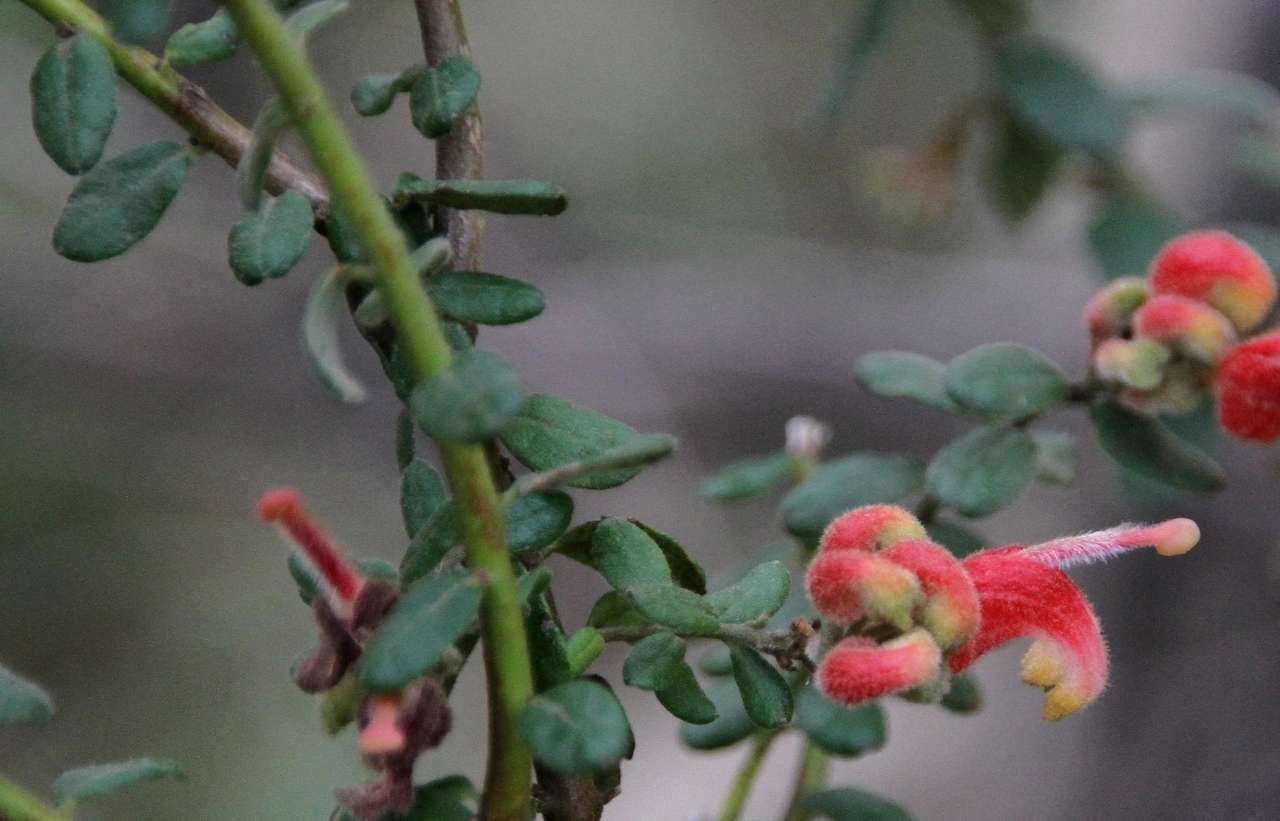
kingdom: Plantae
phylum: Tracheophyta
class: Magnoliopsida
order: Proteales
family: Proteaceae
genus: Grevillea
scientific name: Grevillea alpina
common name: Catclaws grevillea
